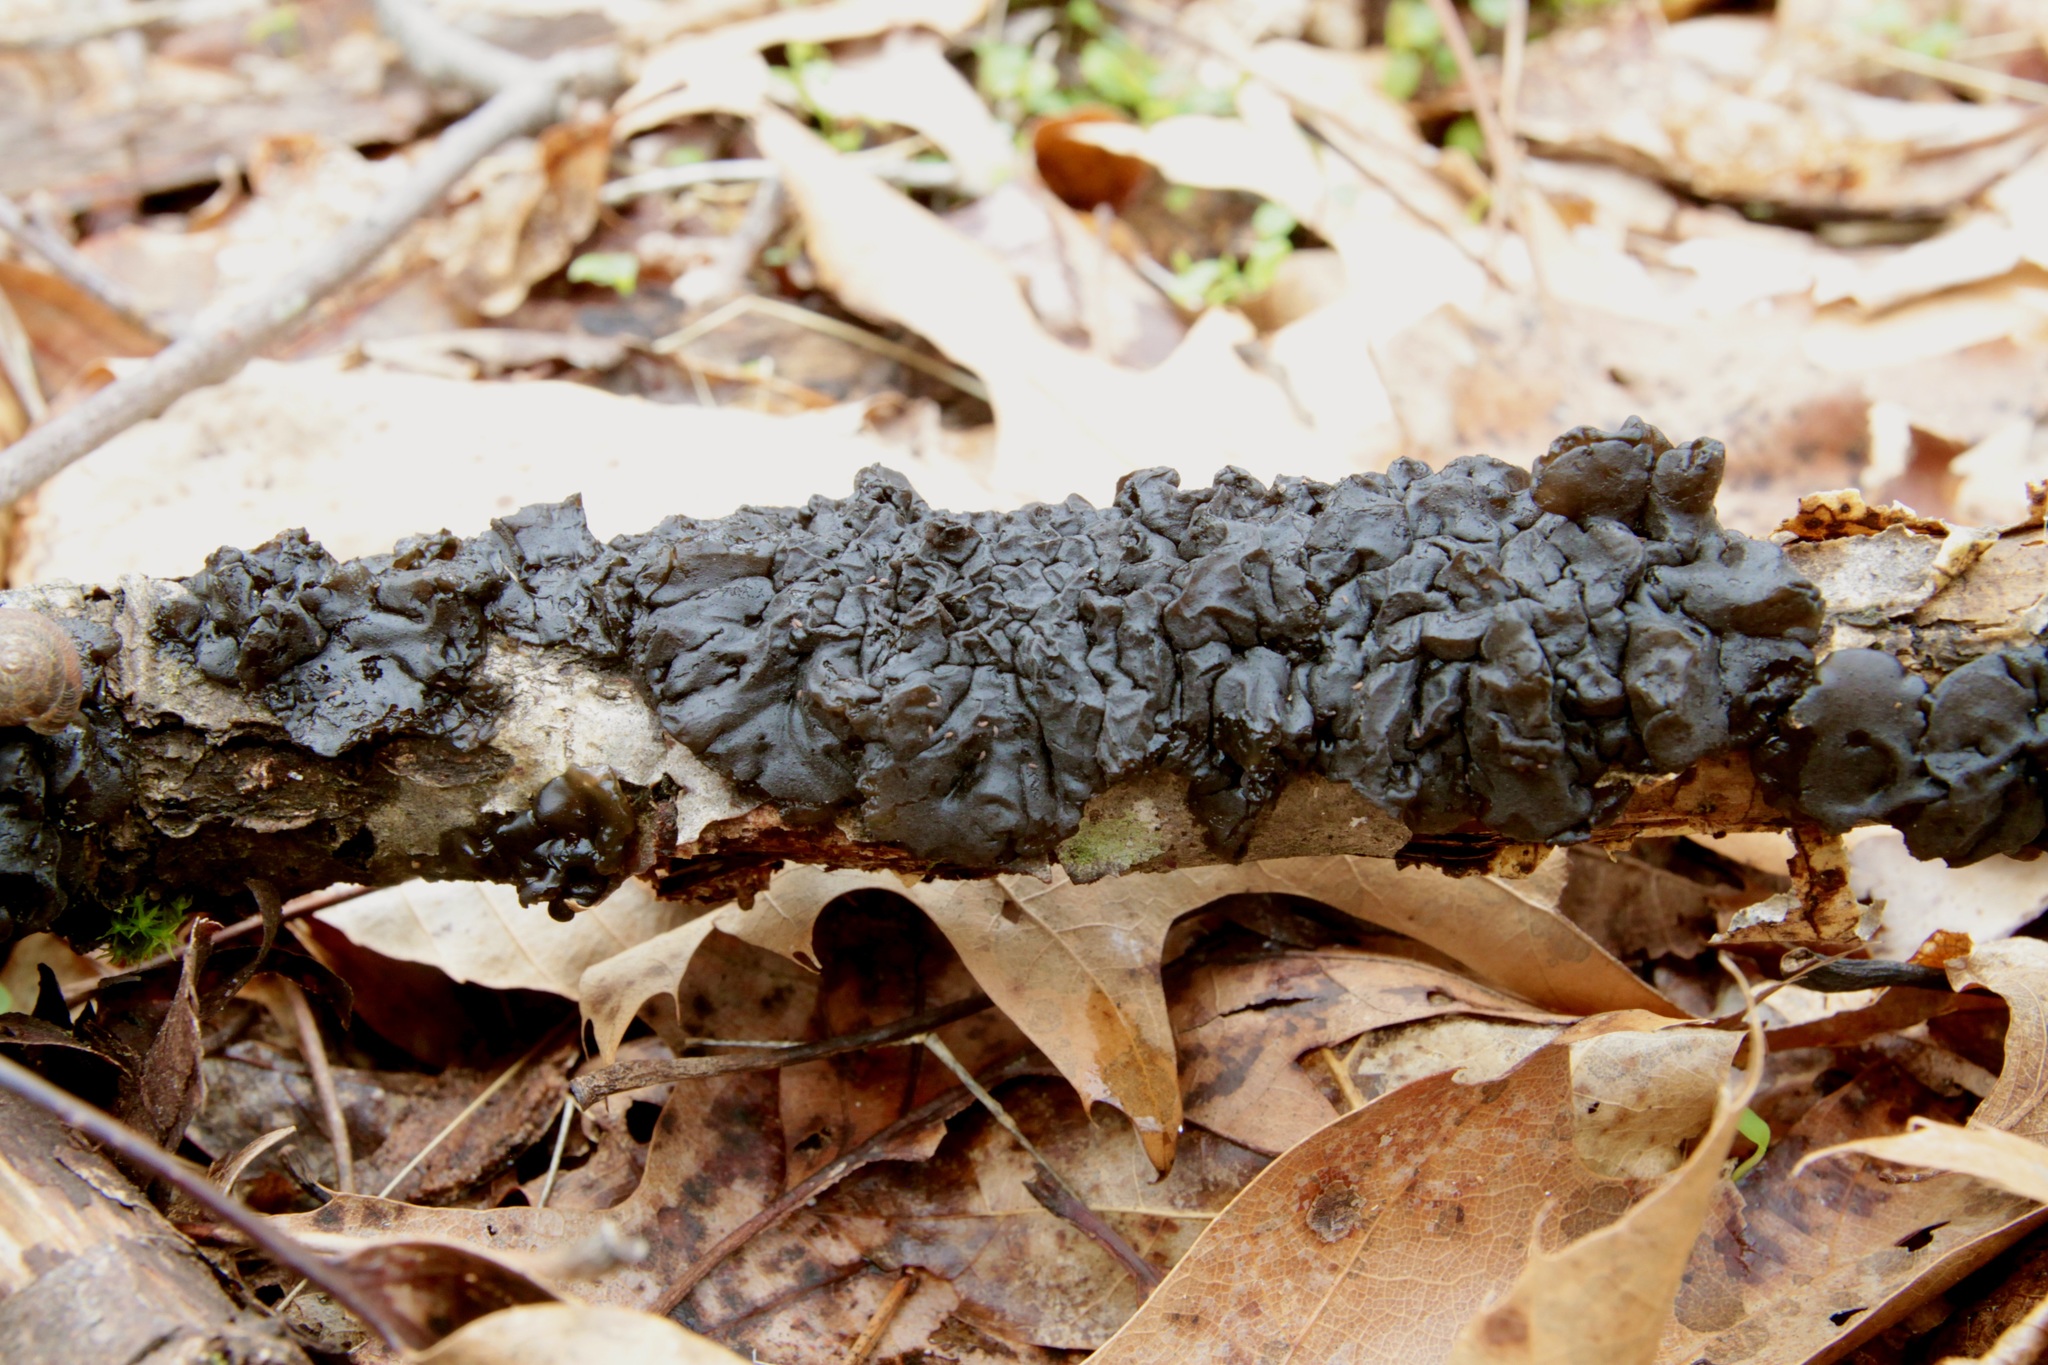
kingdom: Fungi
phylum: Basidiomycota
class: Agaricomycetes
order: Auriculariales
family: Auriculariaceae
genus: Exidia
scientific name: Exidia glandulosa
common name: Witches' butter
